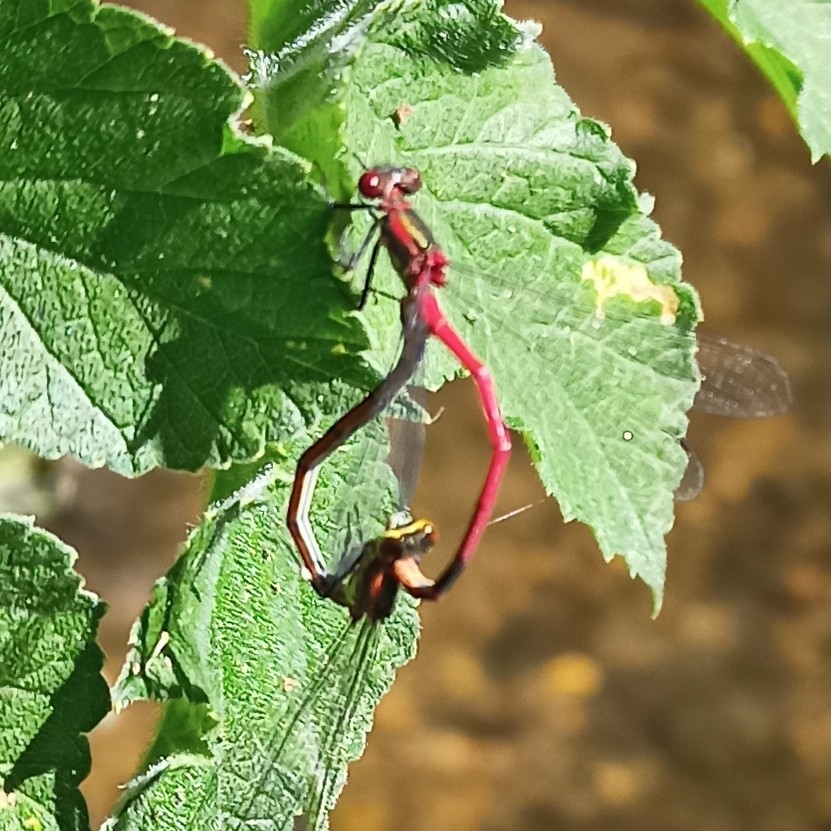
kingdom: Animalia
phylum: Arthropoda
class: Insecta
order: Odonata
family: Coenagrionidae
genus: Pyrrhosoma
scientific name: Pyrrhosoma nymphula
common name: Large red damsel
